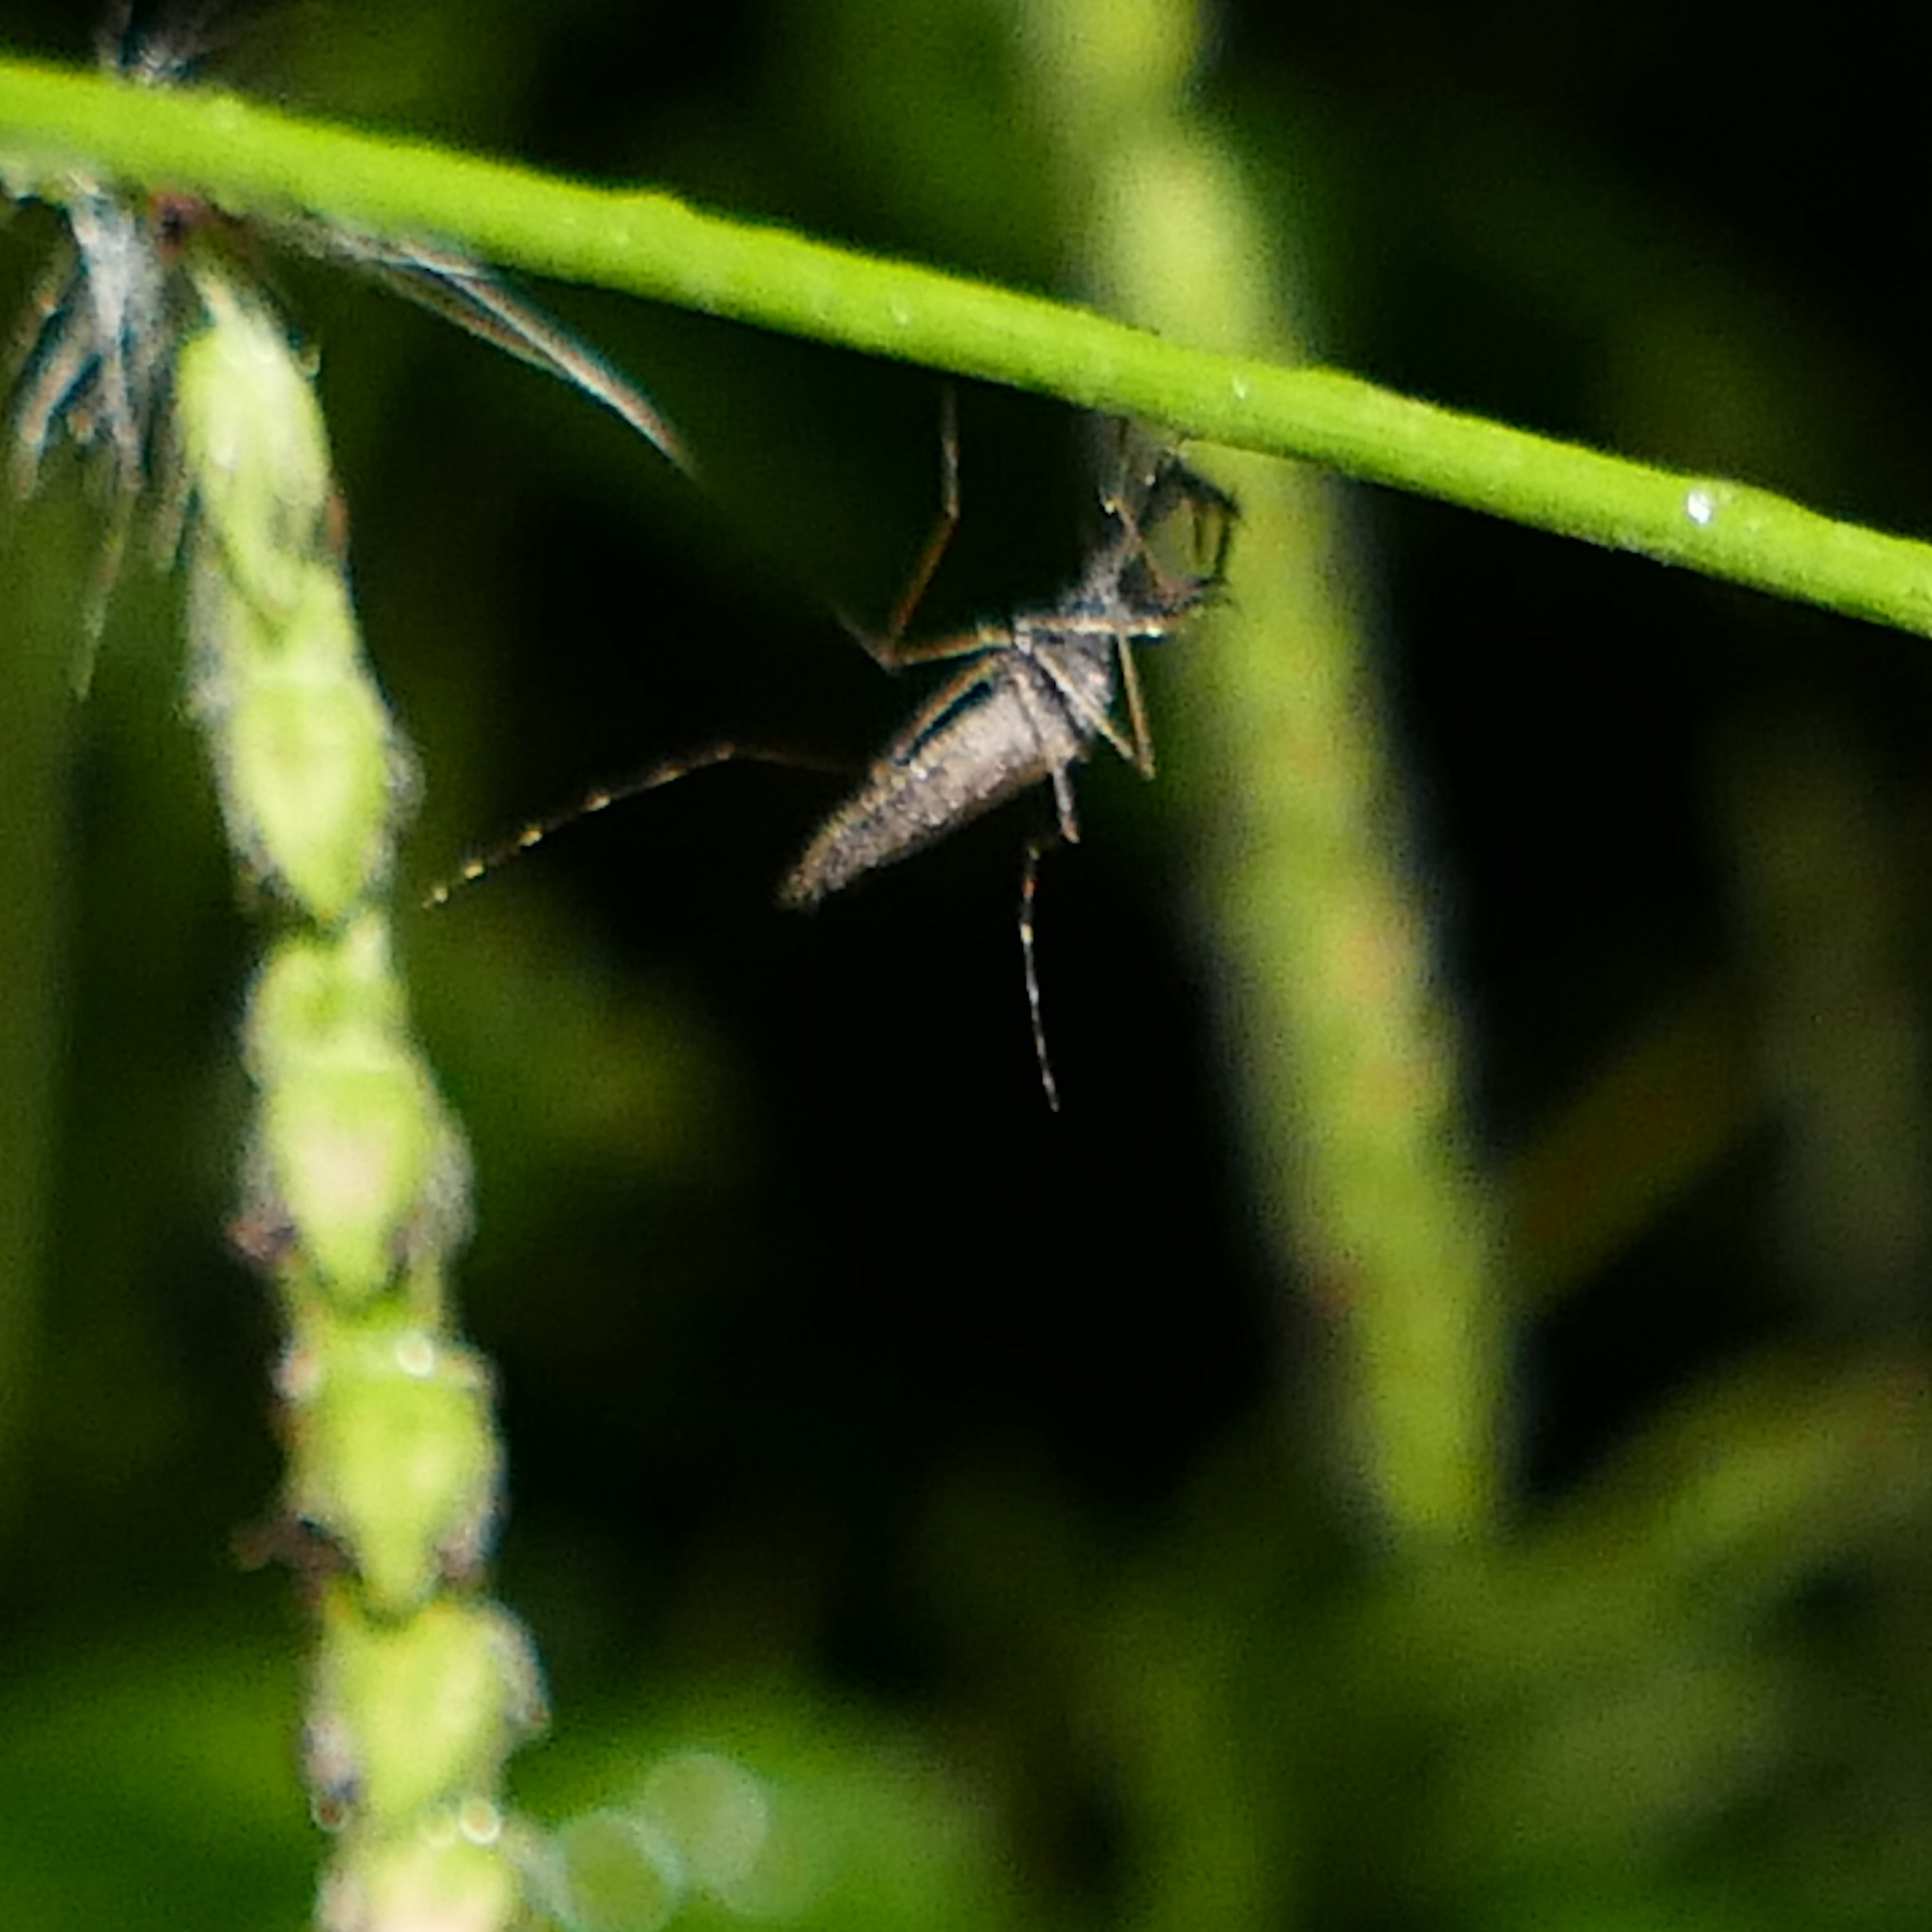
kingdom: Animalia
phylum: Arthropoda
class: Insecta
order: Diptera
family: Culicidae
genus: Psorophora
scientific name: Psorophora columbiae
